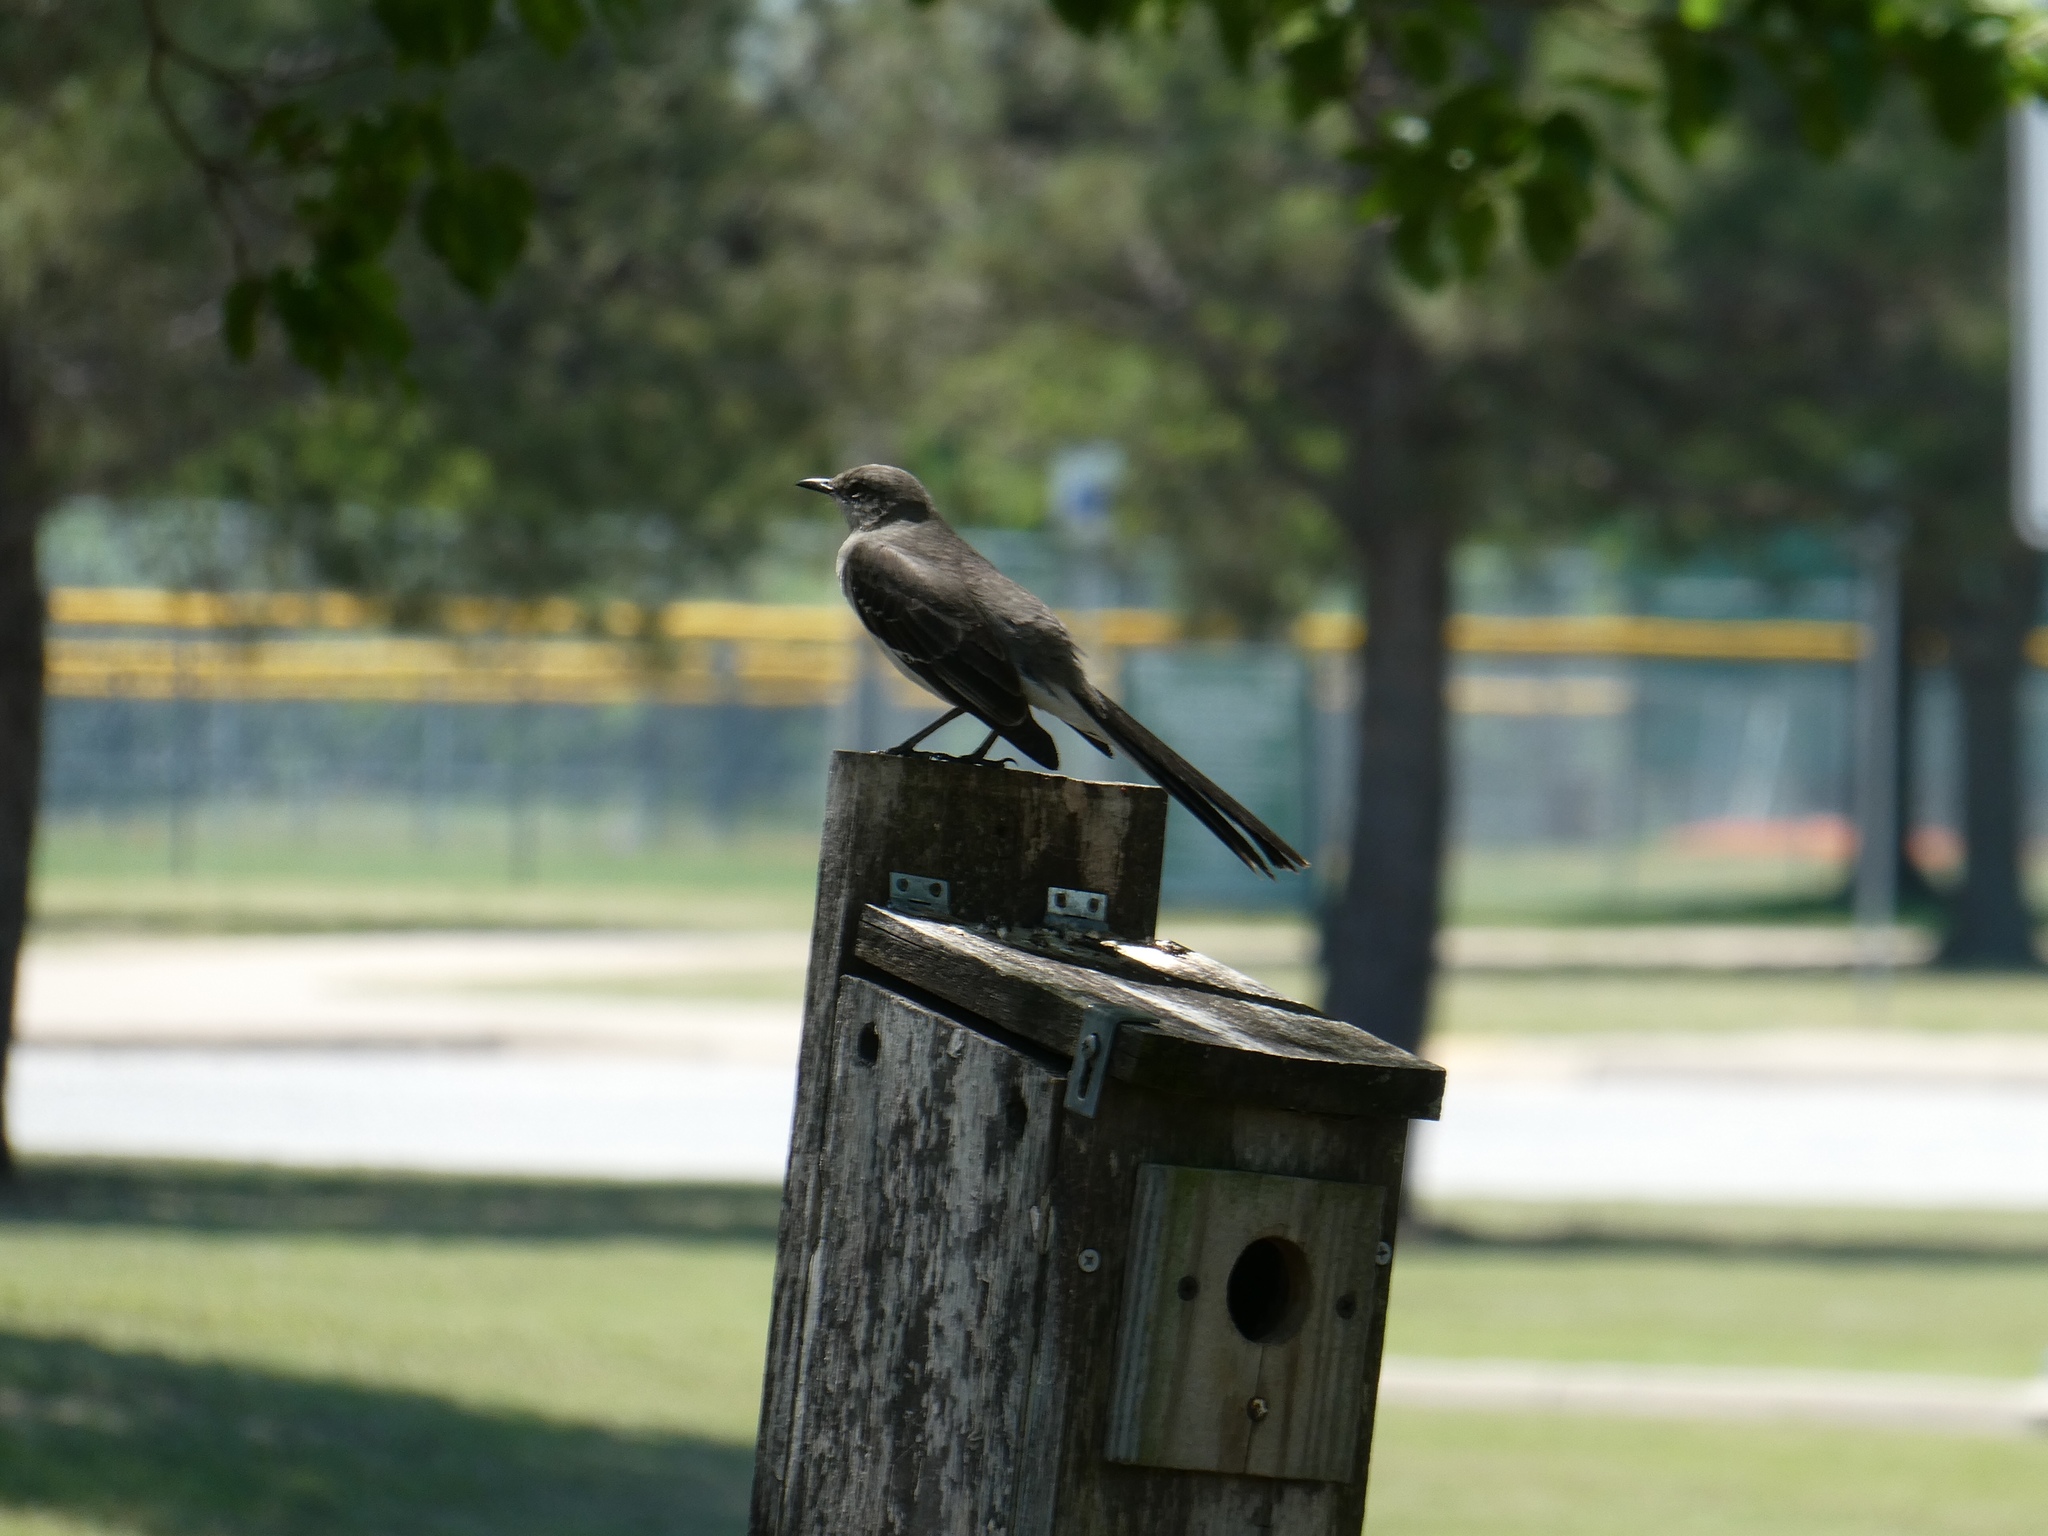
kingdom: Animalia
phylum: Chordata
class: Aves
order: Passeriformes
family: Mimidae
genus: Mimus
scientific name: Mimus polyglottos
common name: Northern mockingbird
